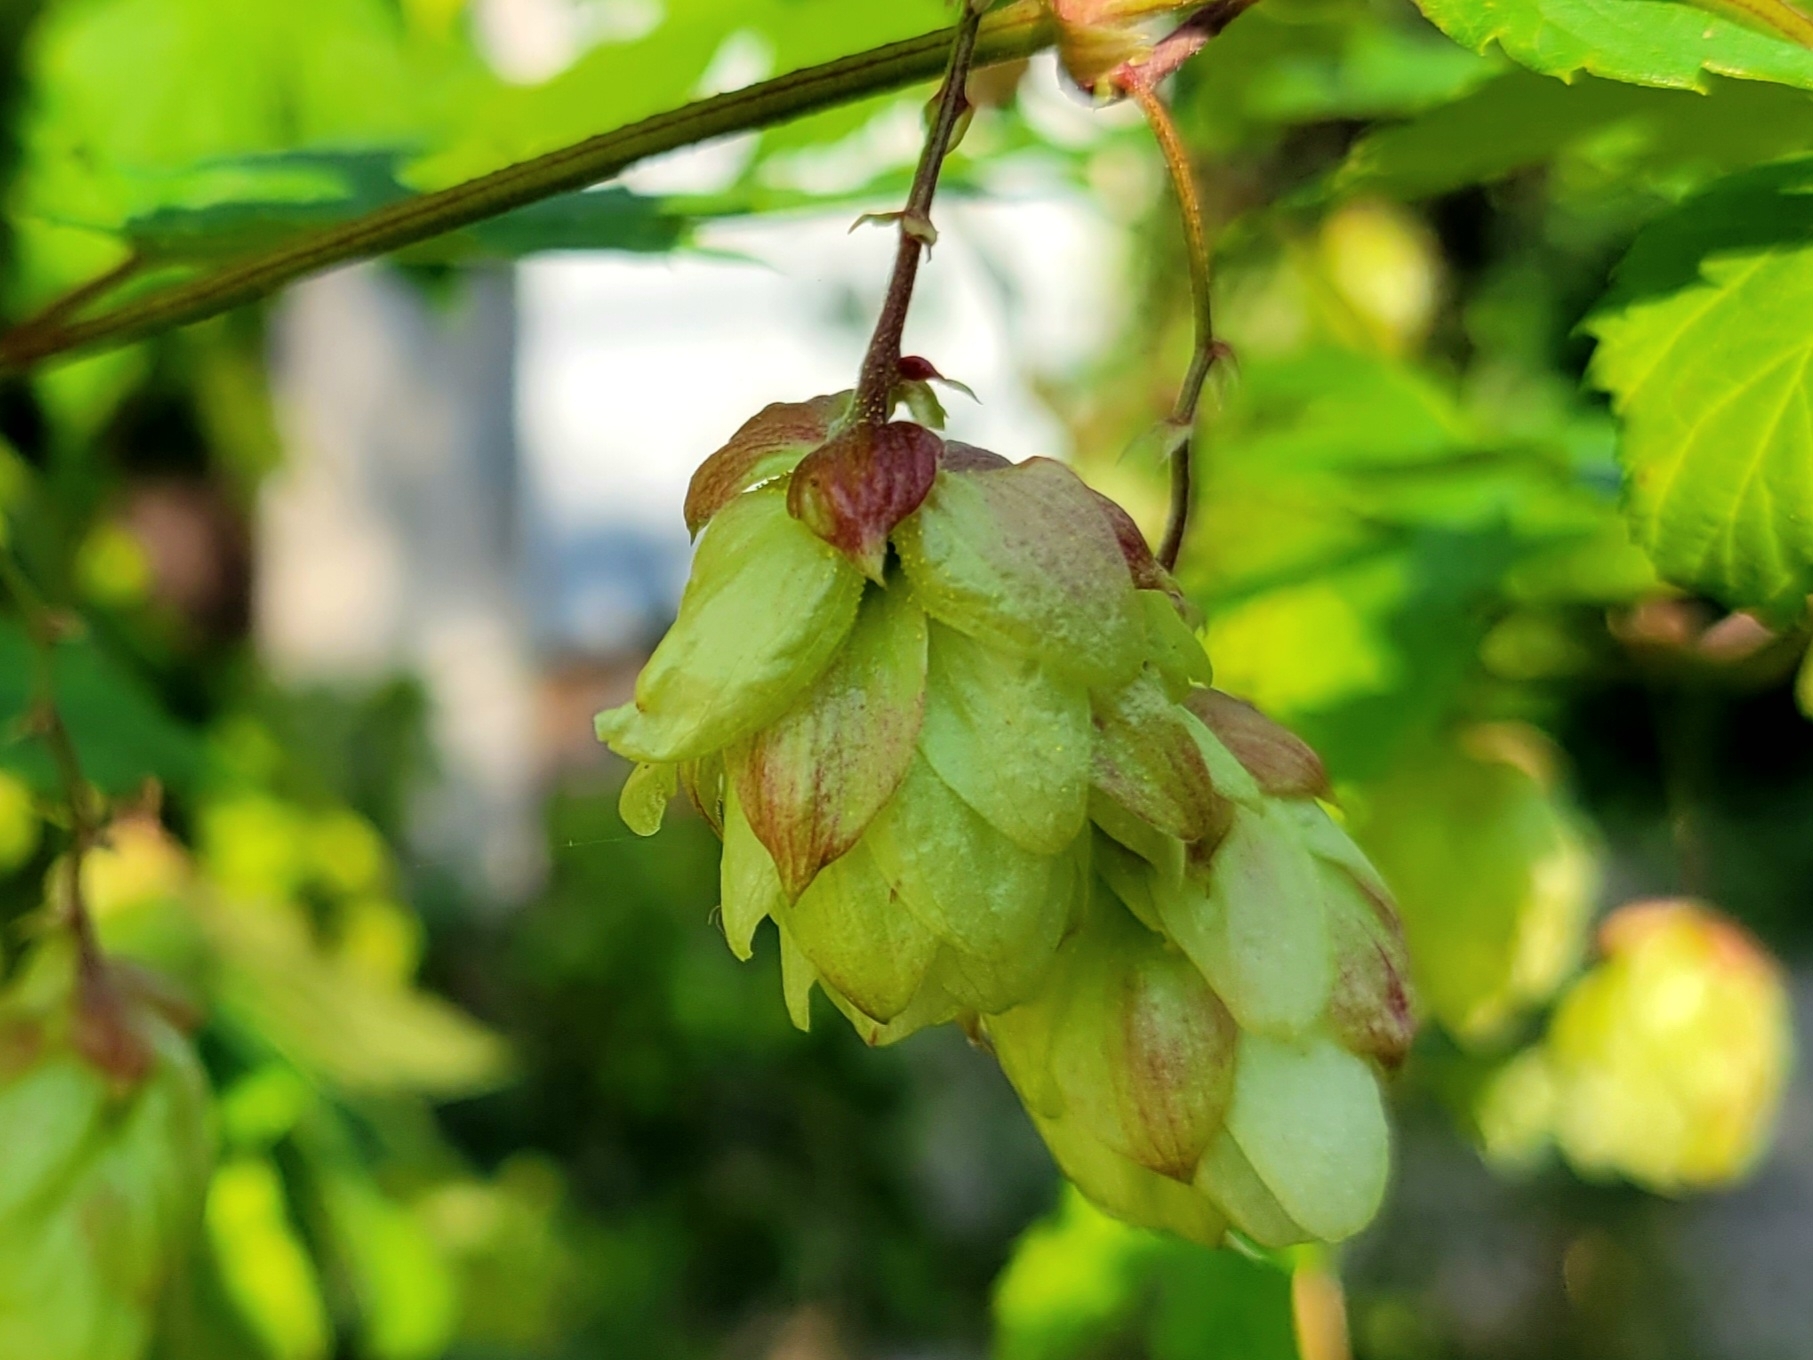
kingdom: Plantae
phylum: Tracheophyta
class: Magnoliopsida
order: Rosales
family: Cannabaceae
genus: Humulus
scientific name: Humulus lupulus
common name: Hop
